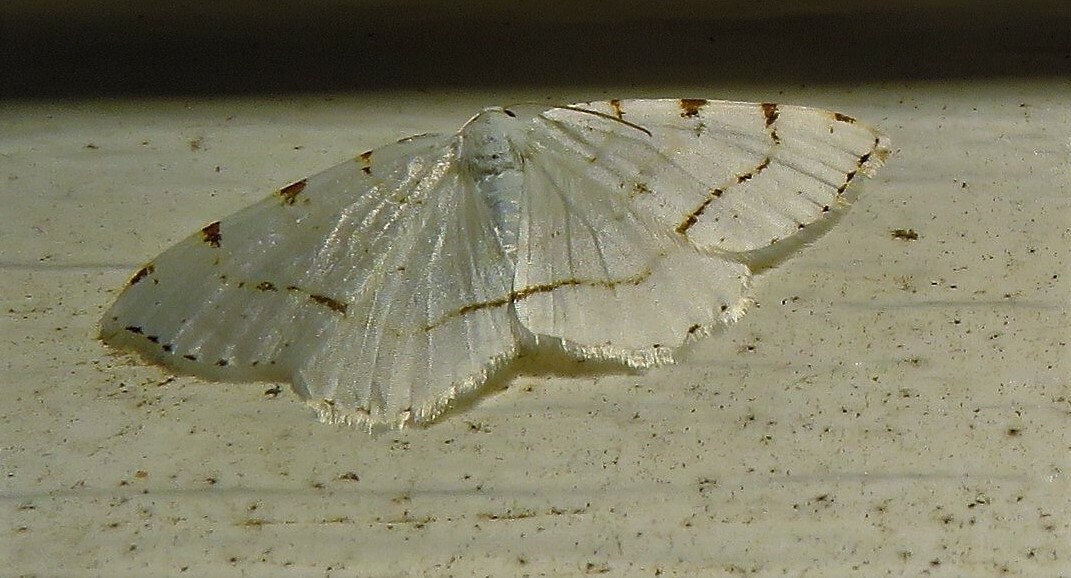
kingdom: Animalia
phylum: Arthropoda
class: Insecta
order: Lepidoptera
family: Geometridae
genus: Macaria
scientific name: Macaria pustularia
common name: Lesser maple spanworm moth
